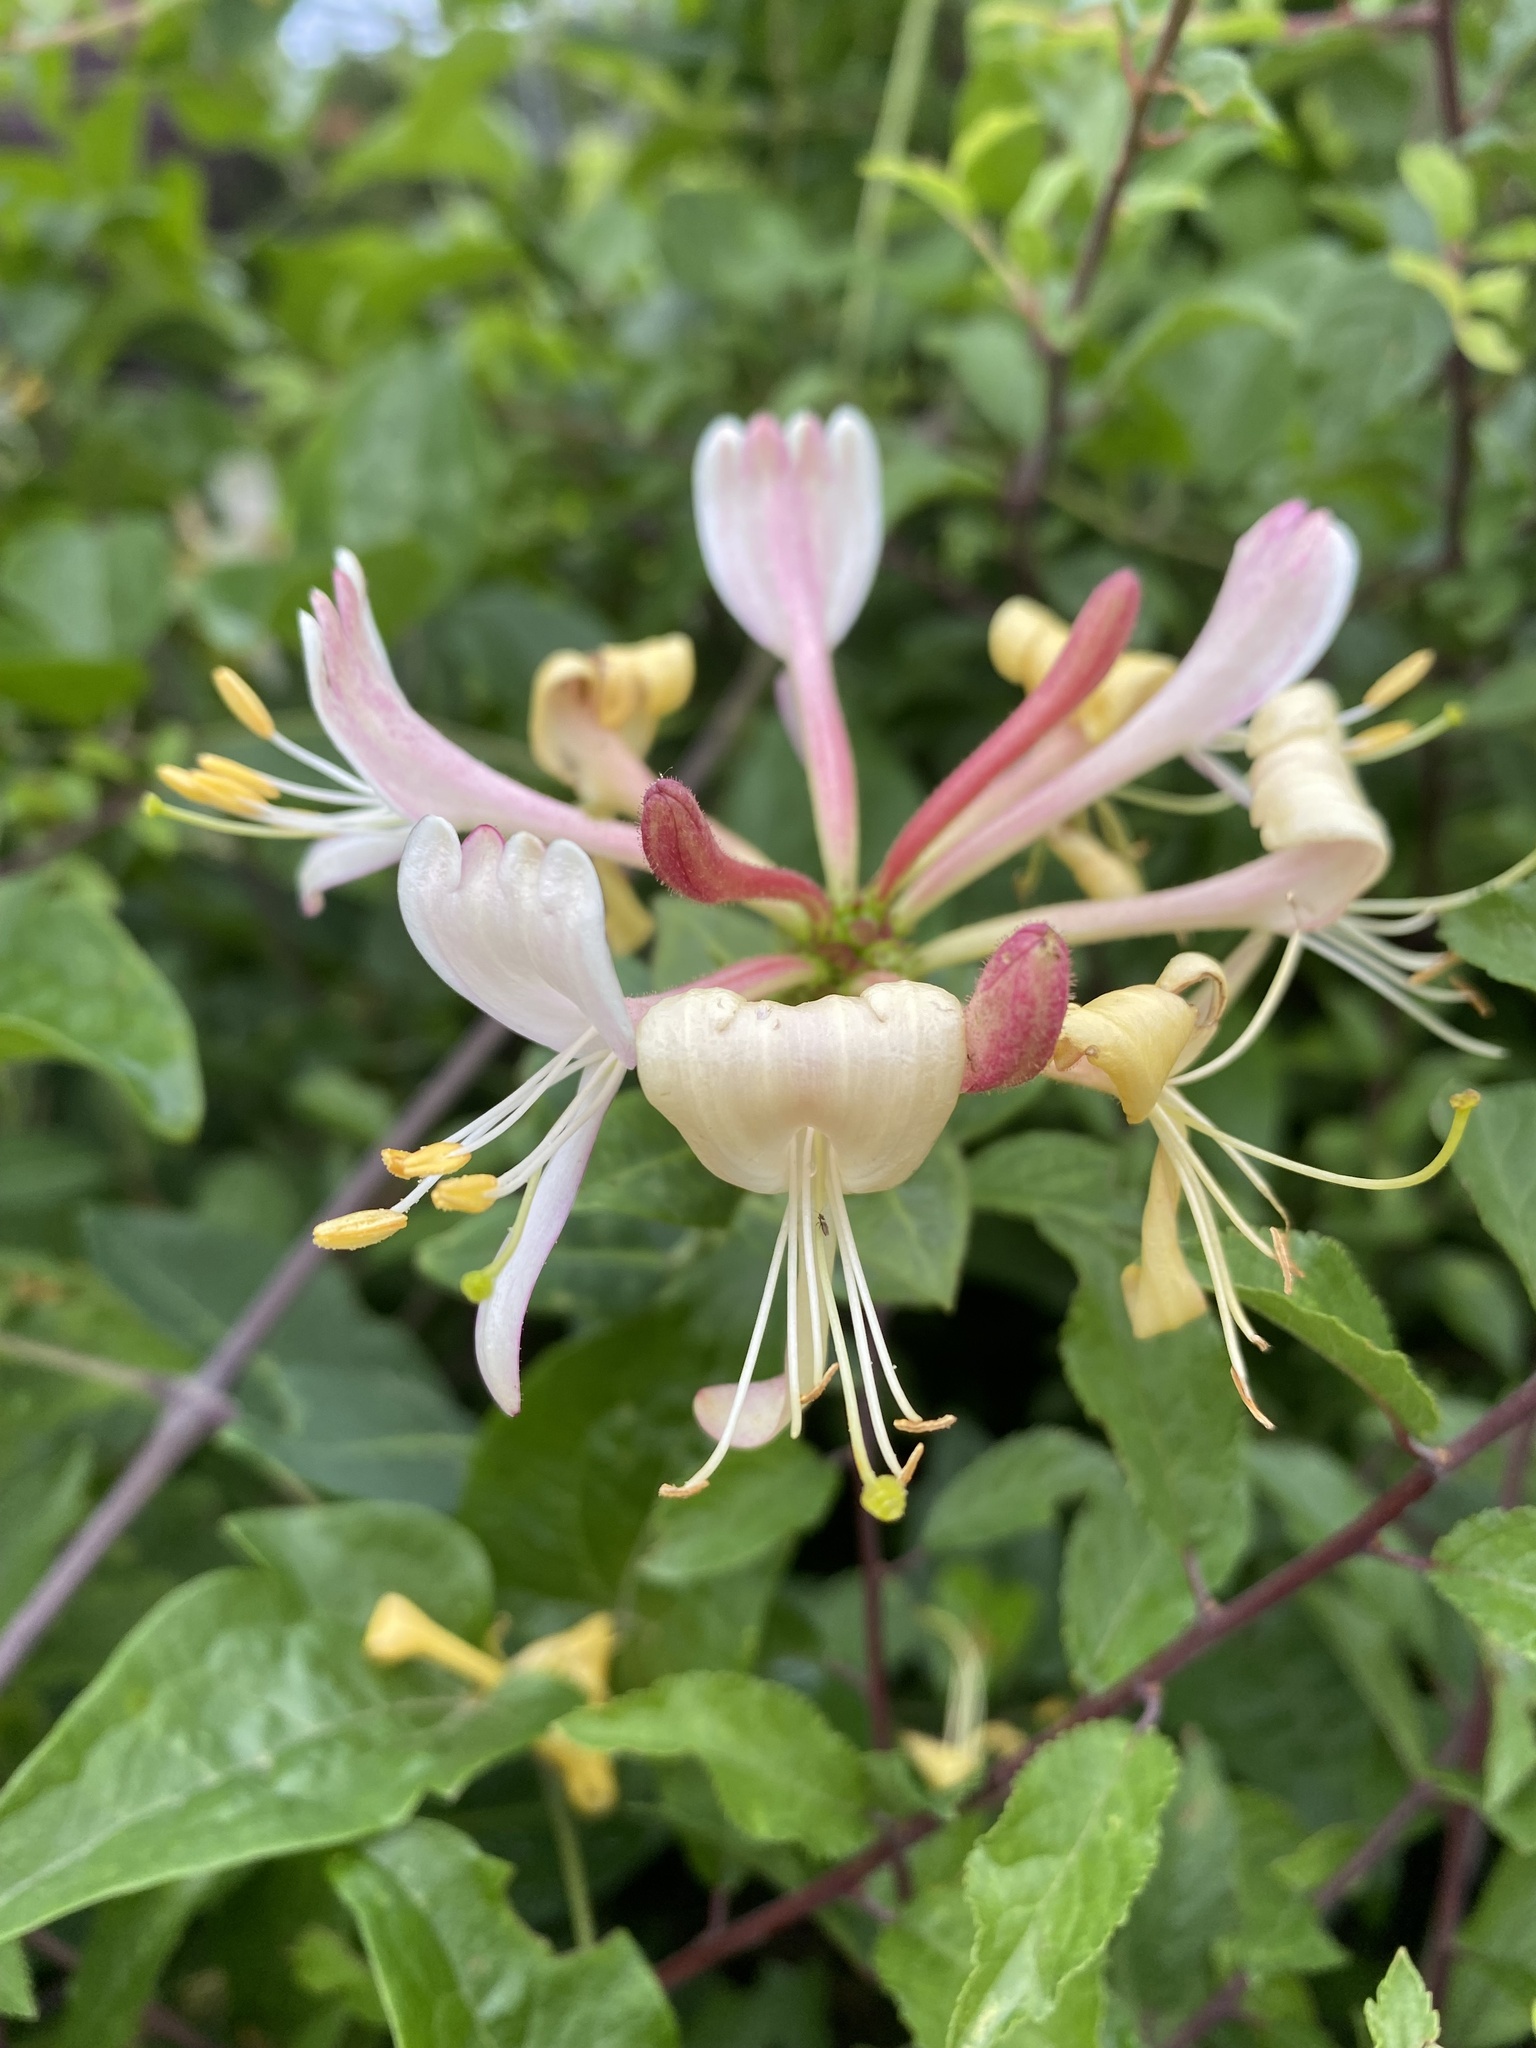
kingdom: Plantae
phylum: Tracheophyta
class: Magnoliopsida
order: Dipsacales
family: Caprifoliaceae
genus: Lonicera
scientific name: Lonicera periclymenum
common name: European honeysuckle
